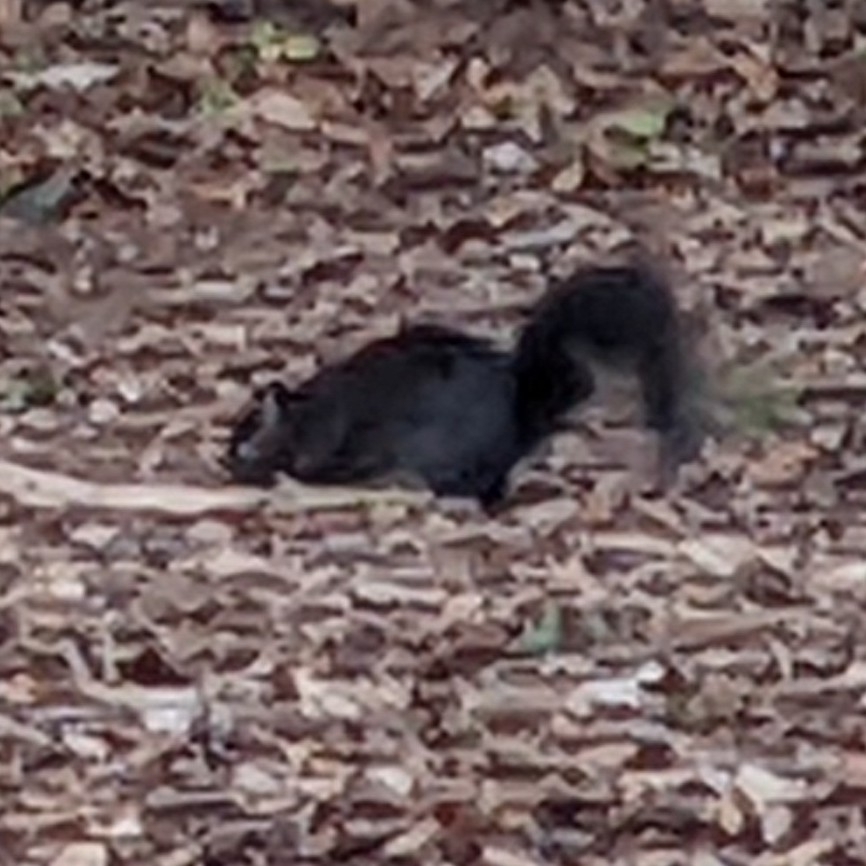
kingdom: Animalia
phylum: Chordata
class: Mammalia
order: Rodentia
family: Sciuridae
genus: Sciurus
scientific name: Sciurus carolinensis
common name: Eastern gray squirrel
